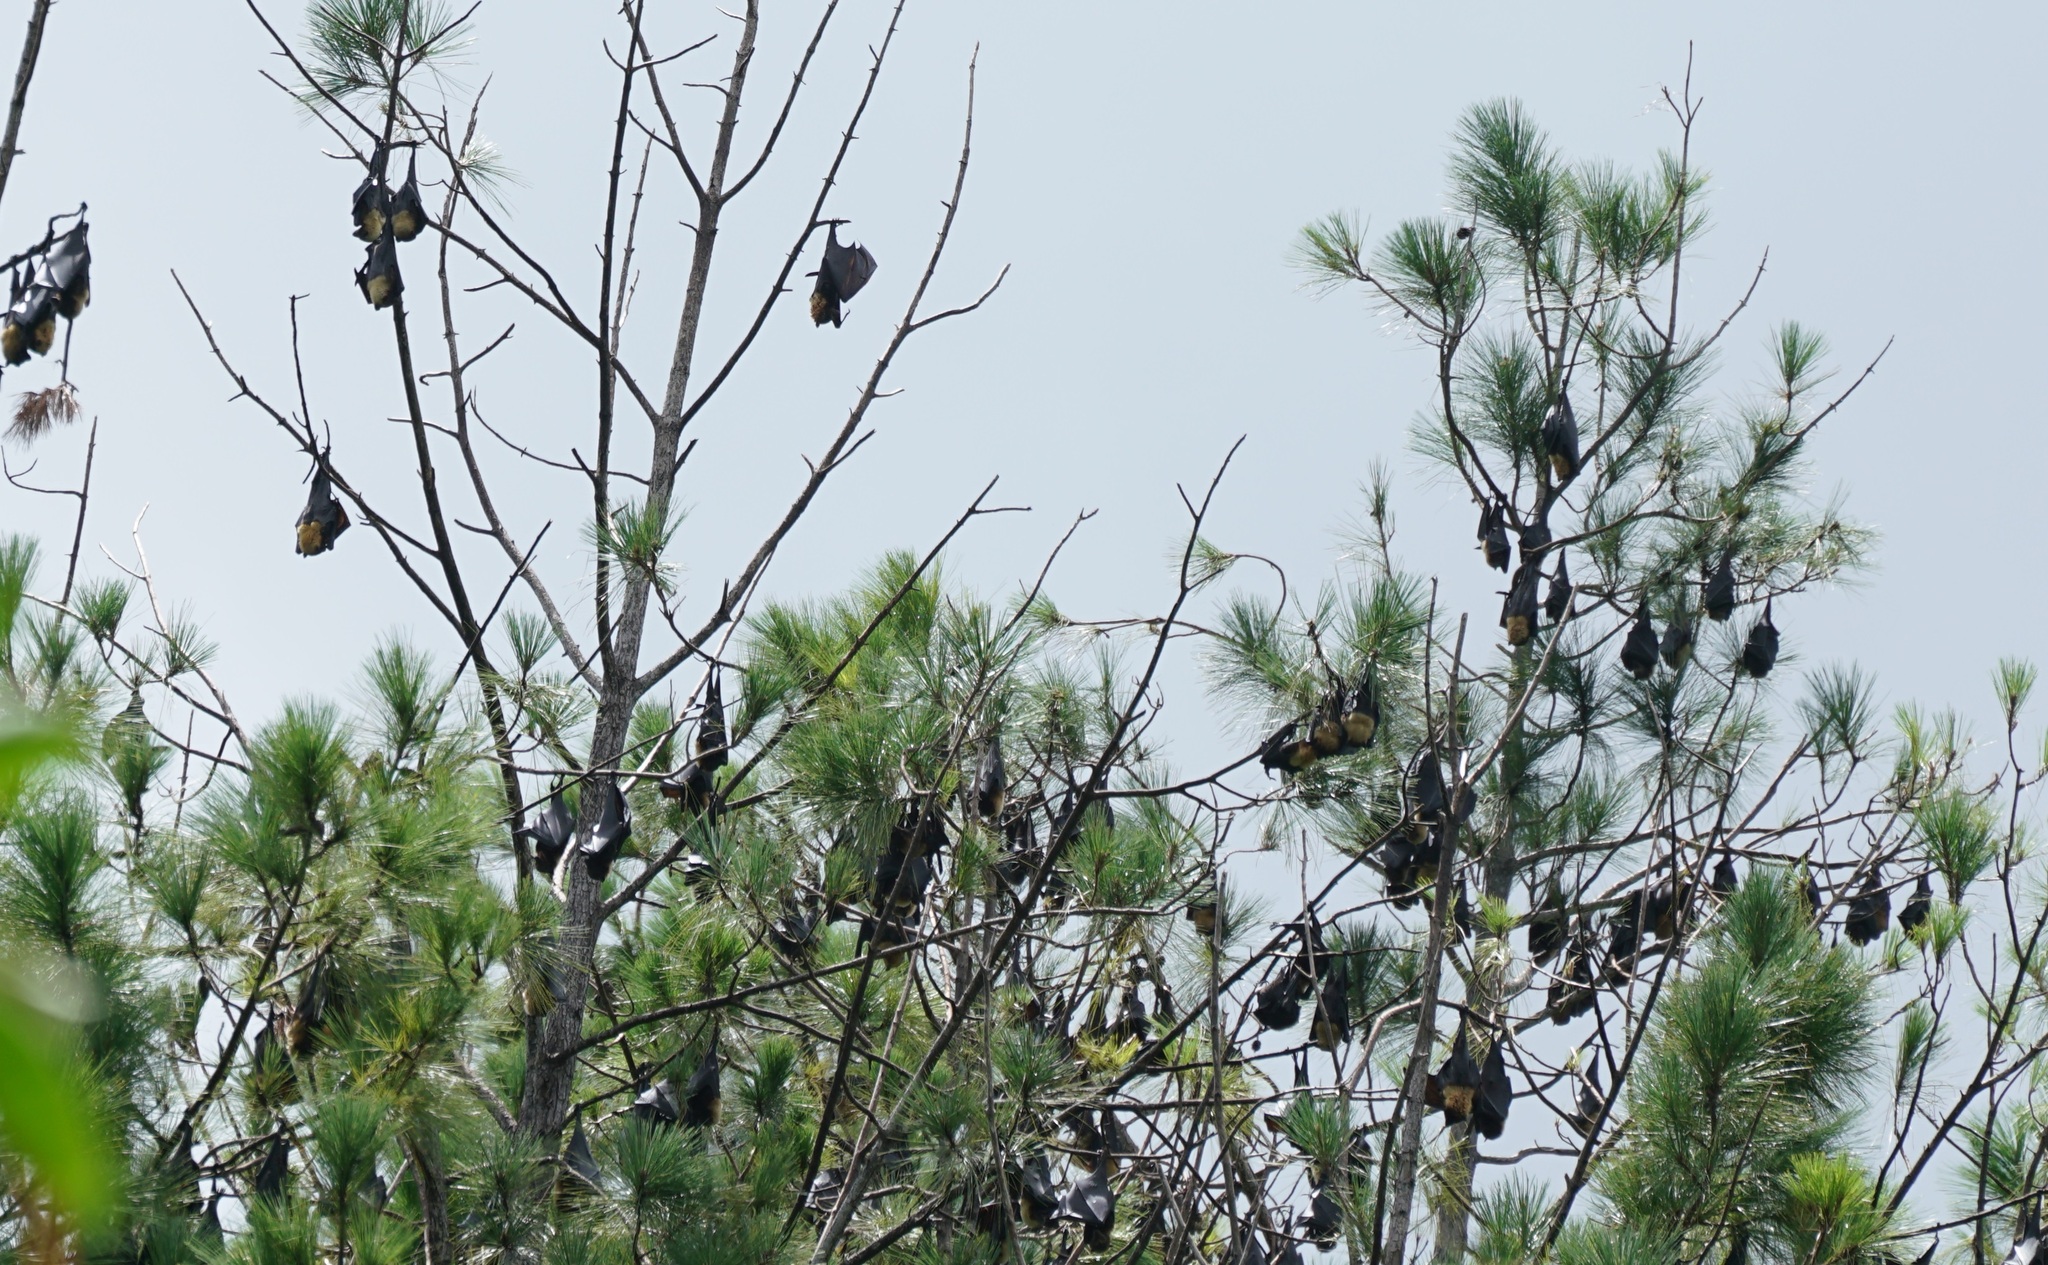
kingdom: Animalia
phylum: Chordata
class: Mammalia
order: Chiroptera
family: Pteropodidae
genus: Pteropus
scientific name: Pteropus tonganus
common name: Pacific flying fox
